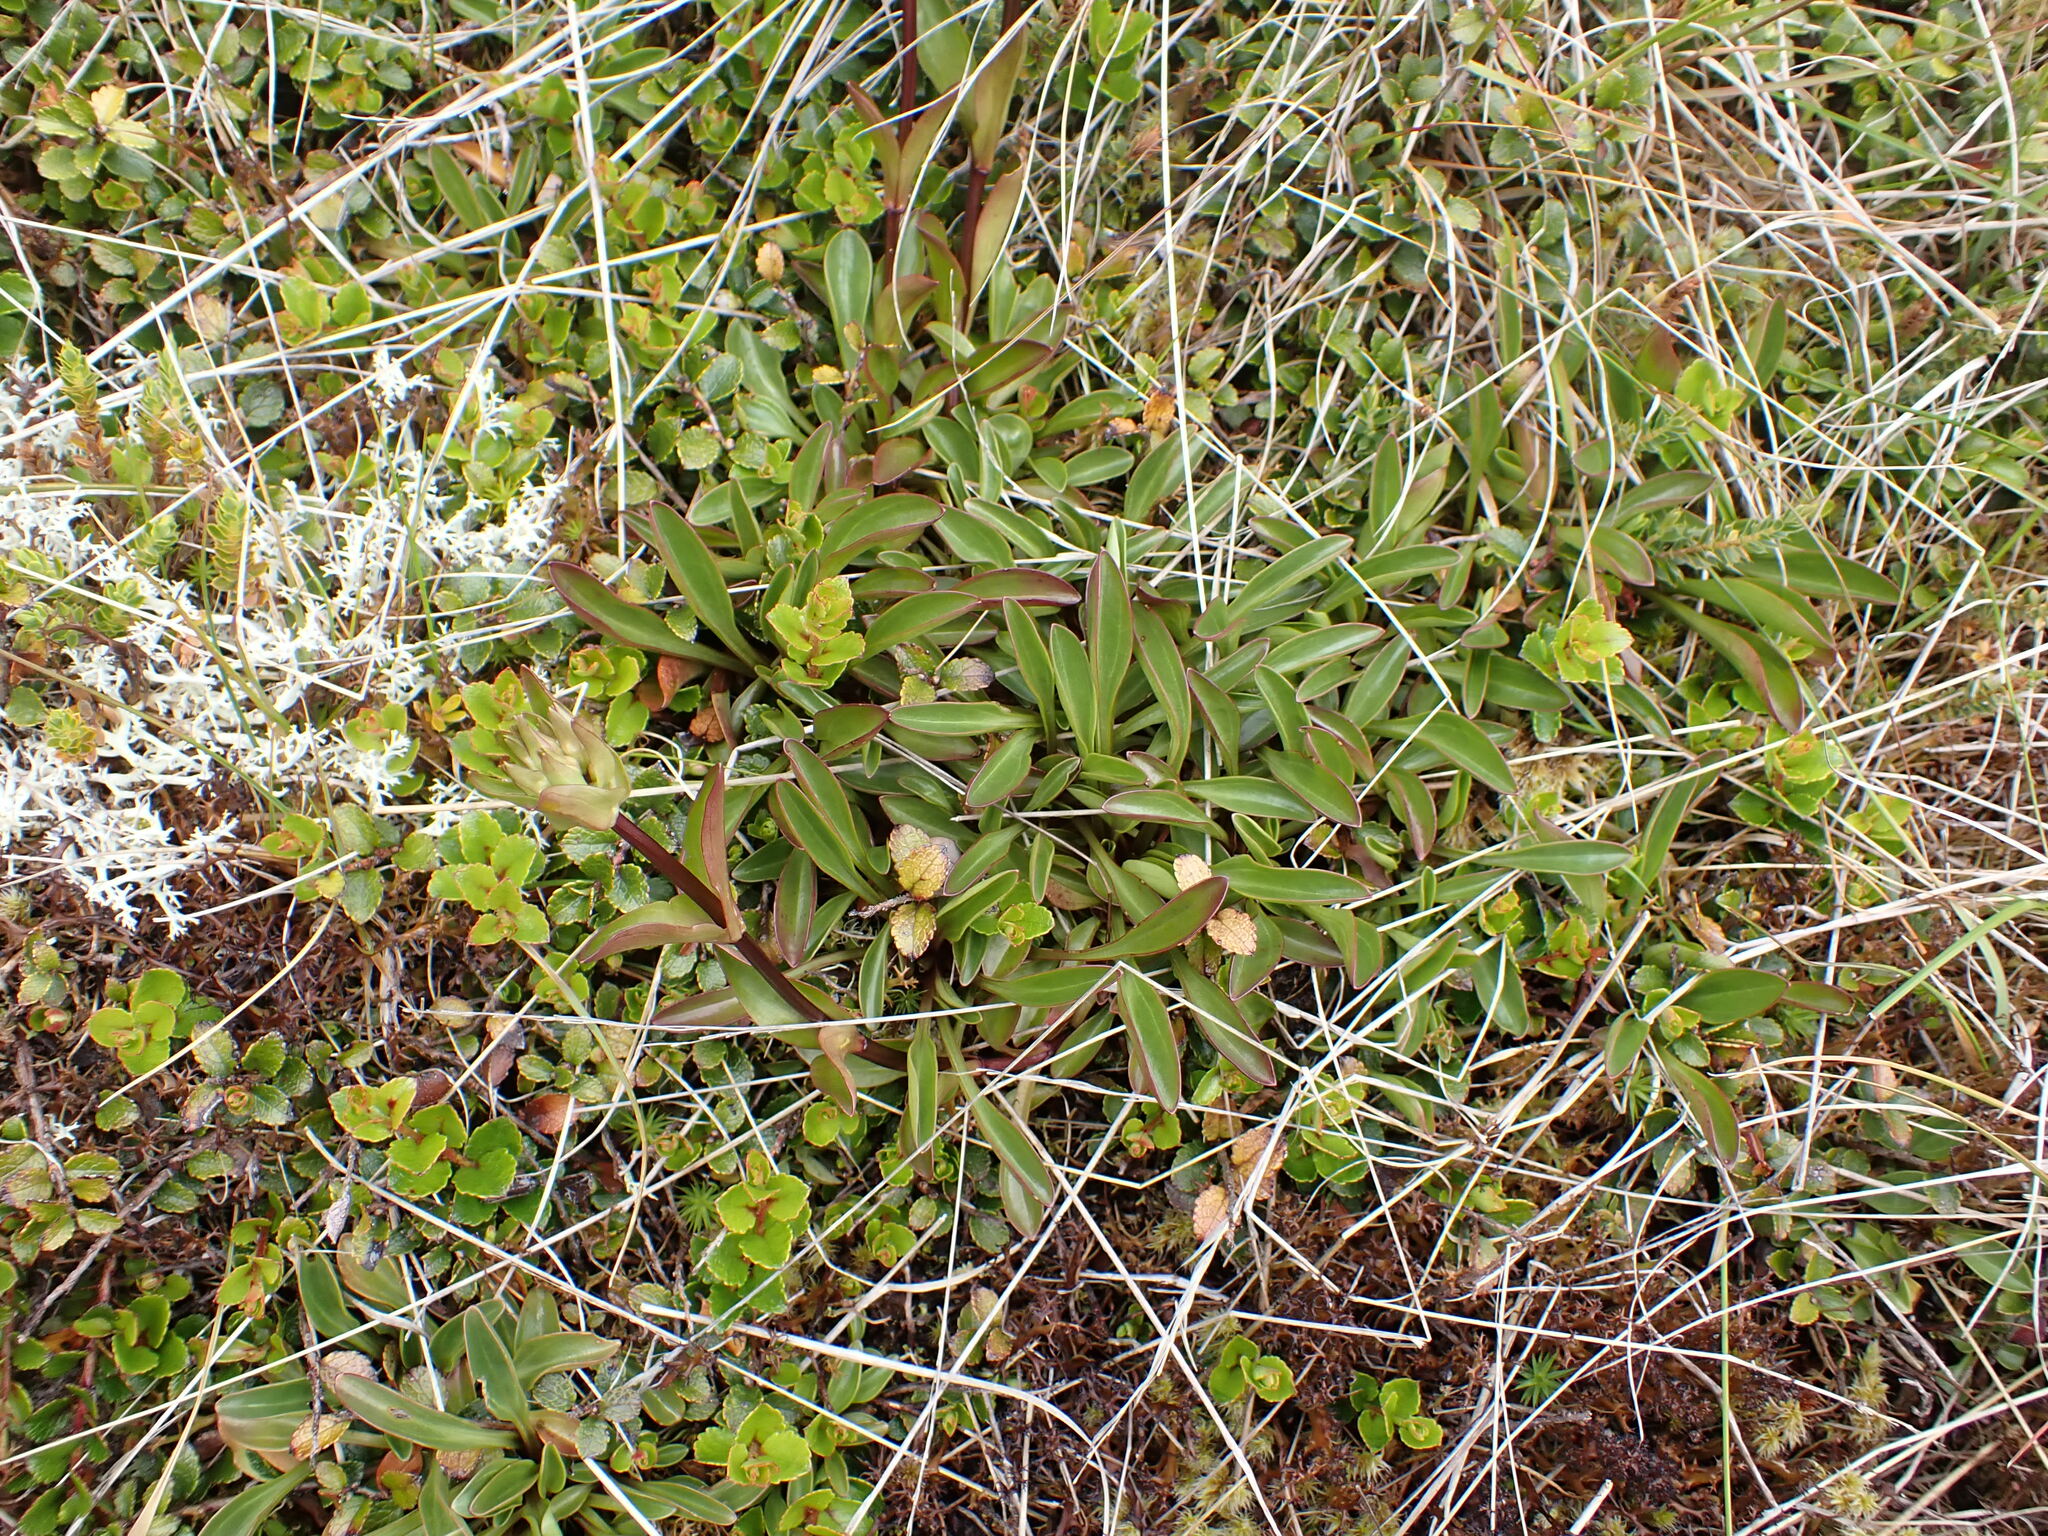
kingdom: Plantae
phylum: Tracheophyta
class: Magnoliopsida
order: Gentianales
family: Gentianaceae
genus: Gentianella
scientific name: Gentianella bellidifolia
